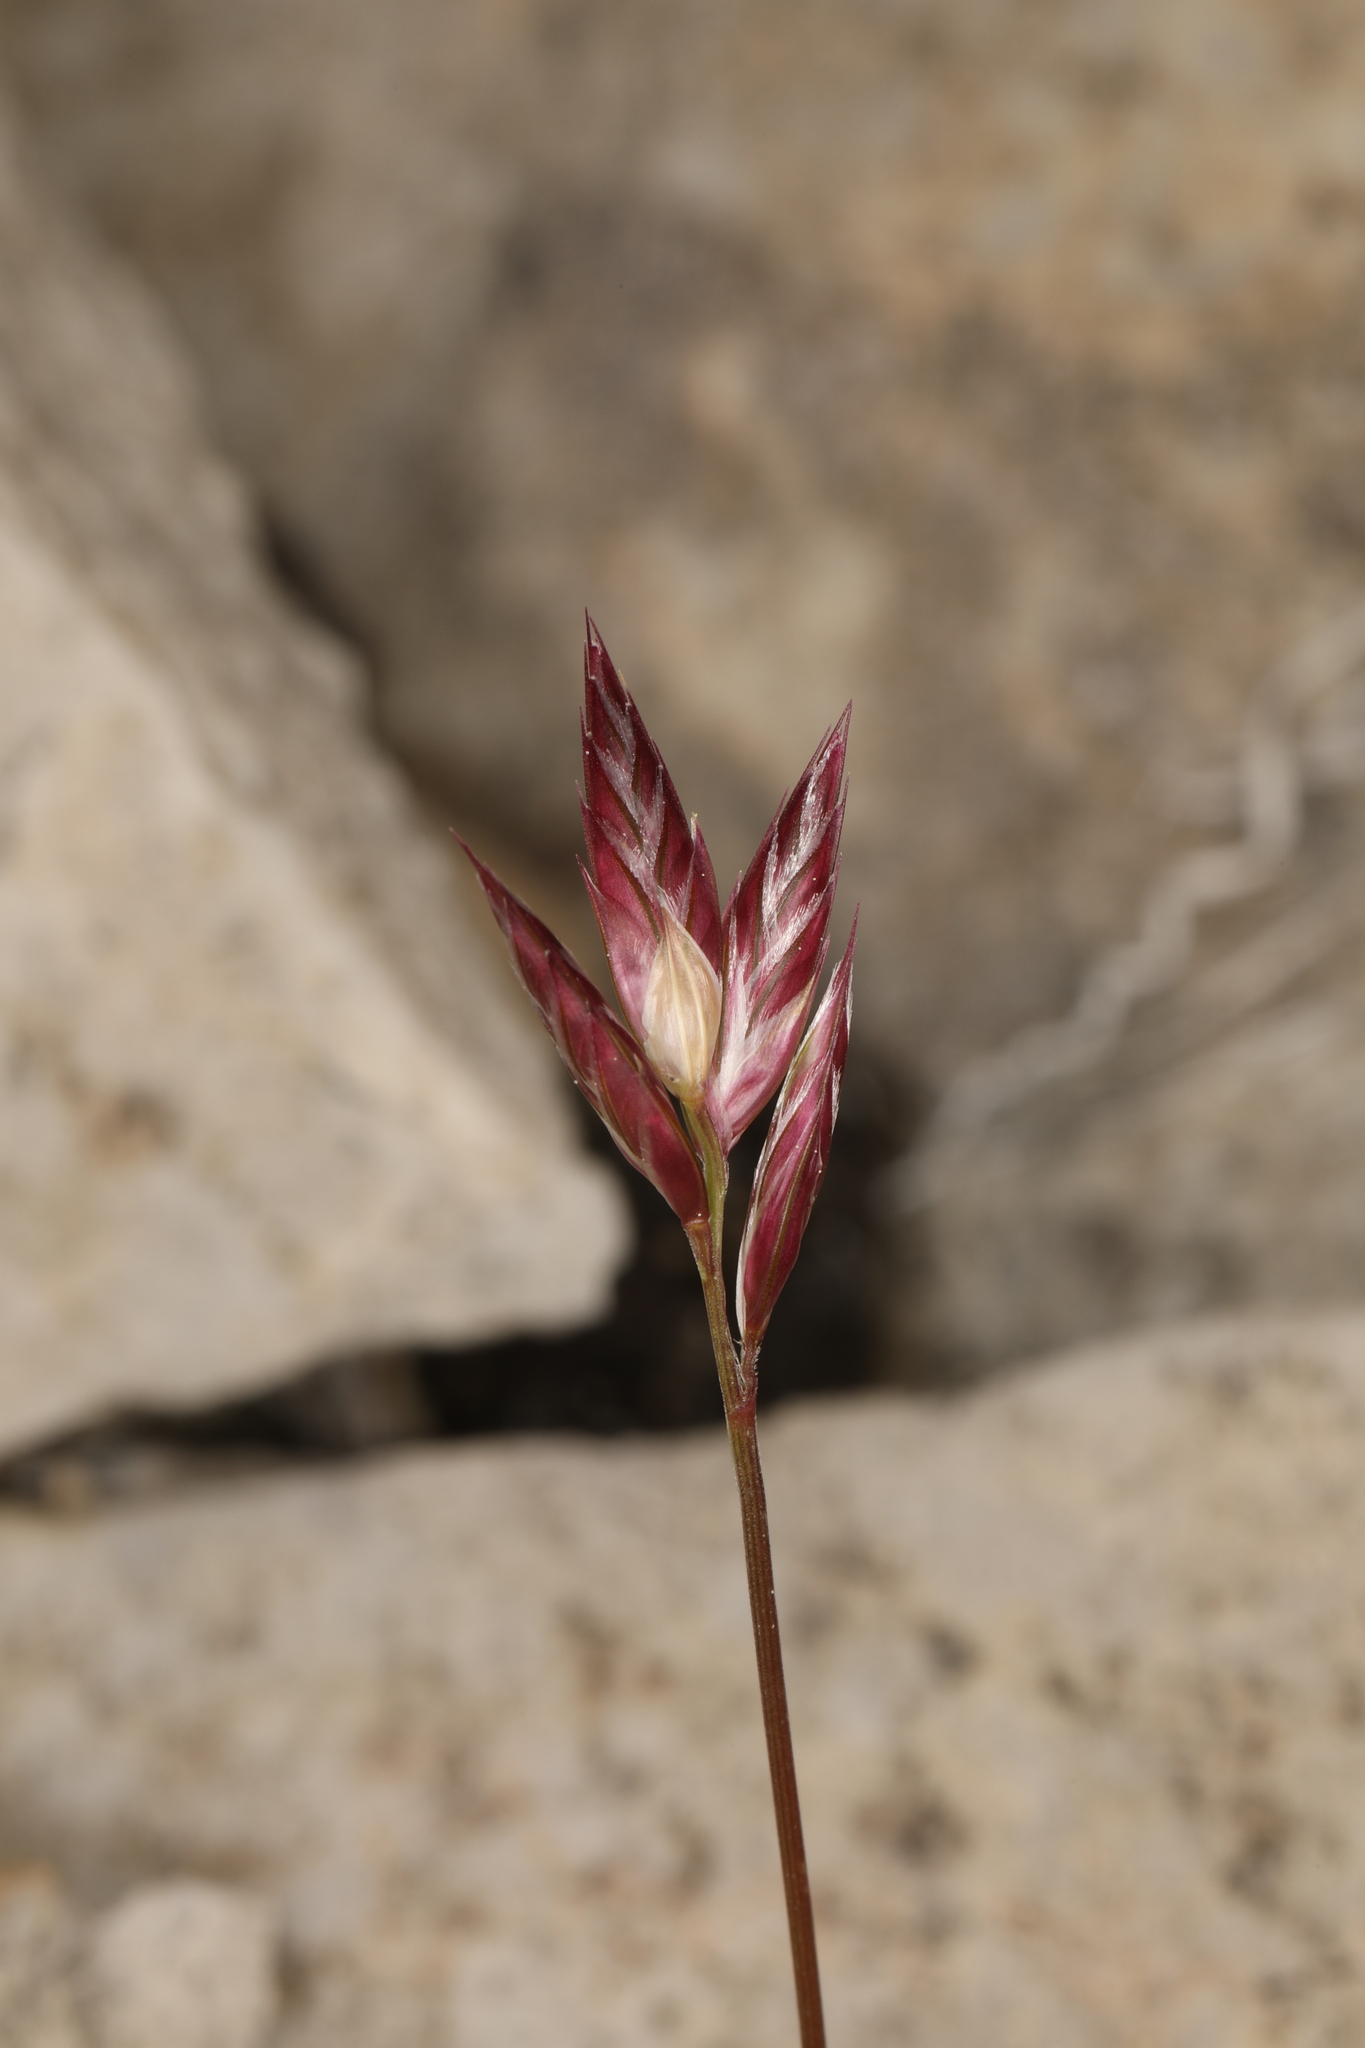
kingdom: Plantae
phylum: Tracheophyta
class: Liliopsida
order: Poales
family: Poaceae
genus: Erioneuron
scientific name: Erioneuron pilosum
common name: Hairy woolly grass
